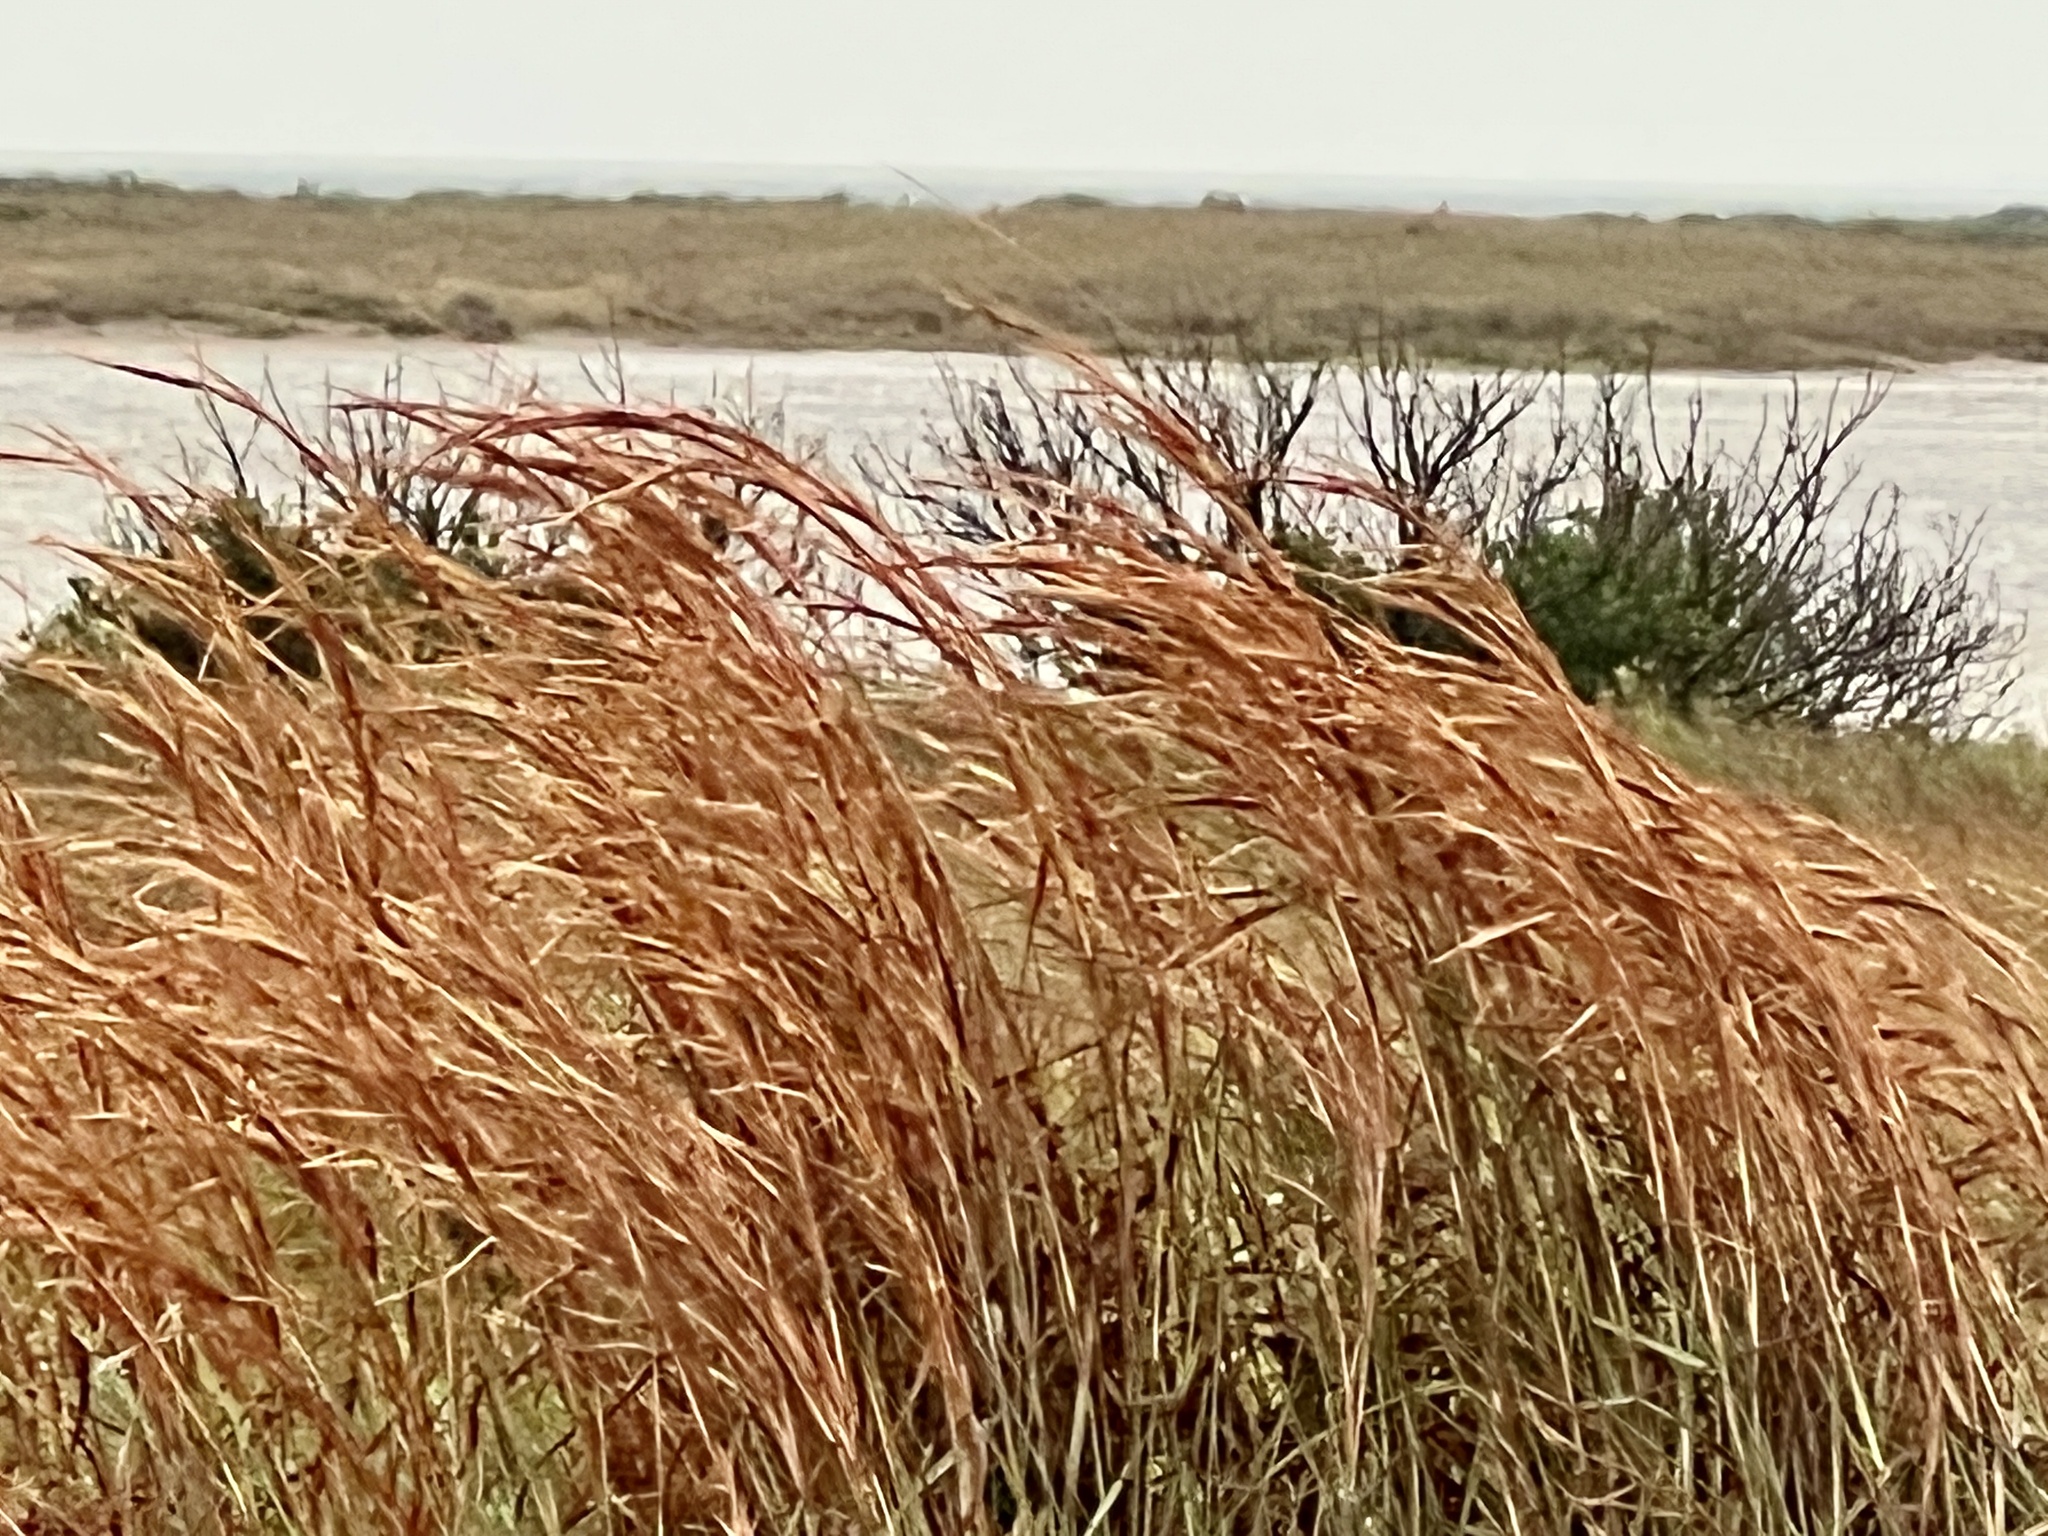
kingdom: Plantae
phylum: Tracheophyta
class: Liliopsida
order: Poales
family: Poaceae
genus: Schizachyrium
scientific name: Schizachyrium scoparium
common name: Little bluestem
